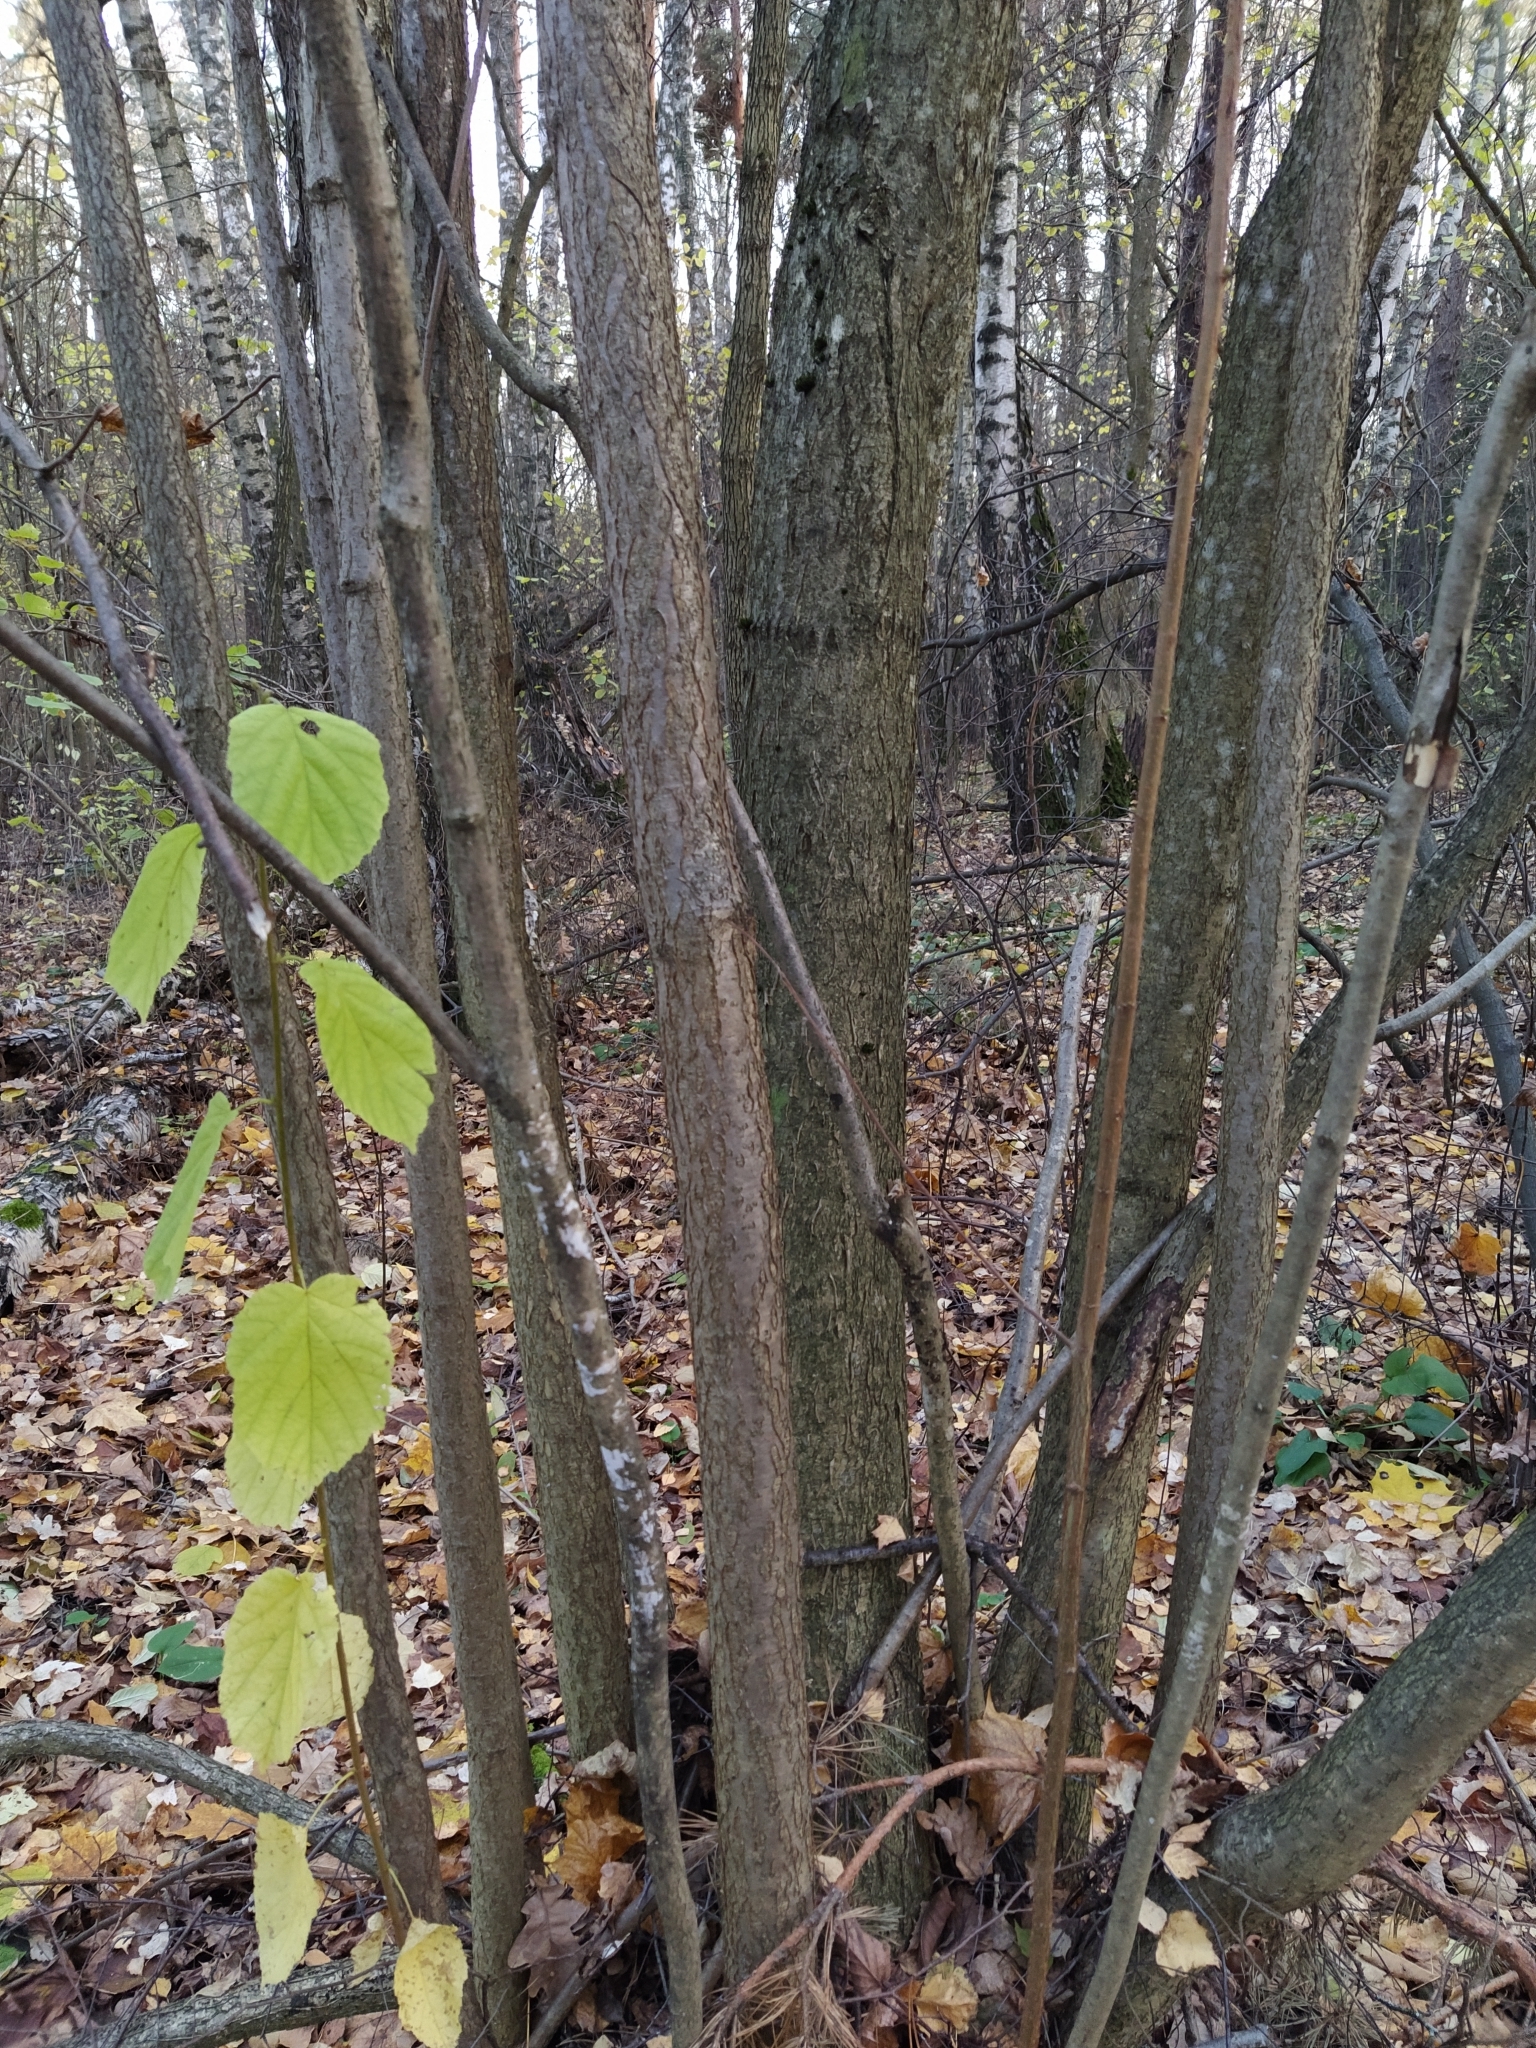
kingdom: Plantae
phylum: Tracheophyta
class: Magnoliopsida
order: Fagales
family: Betulaceae
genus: Corylus
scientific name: Corylus avellana
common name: European hazel
